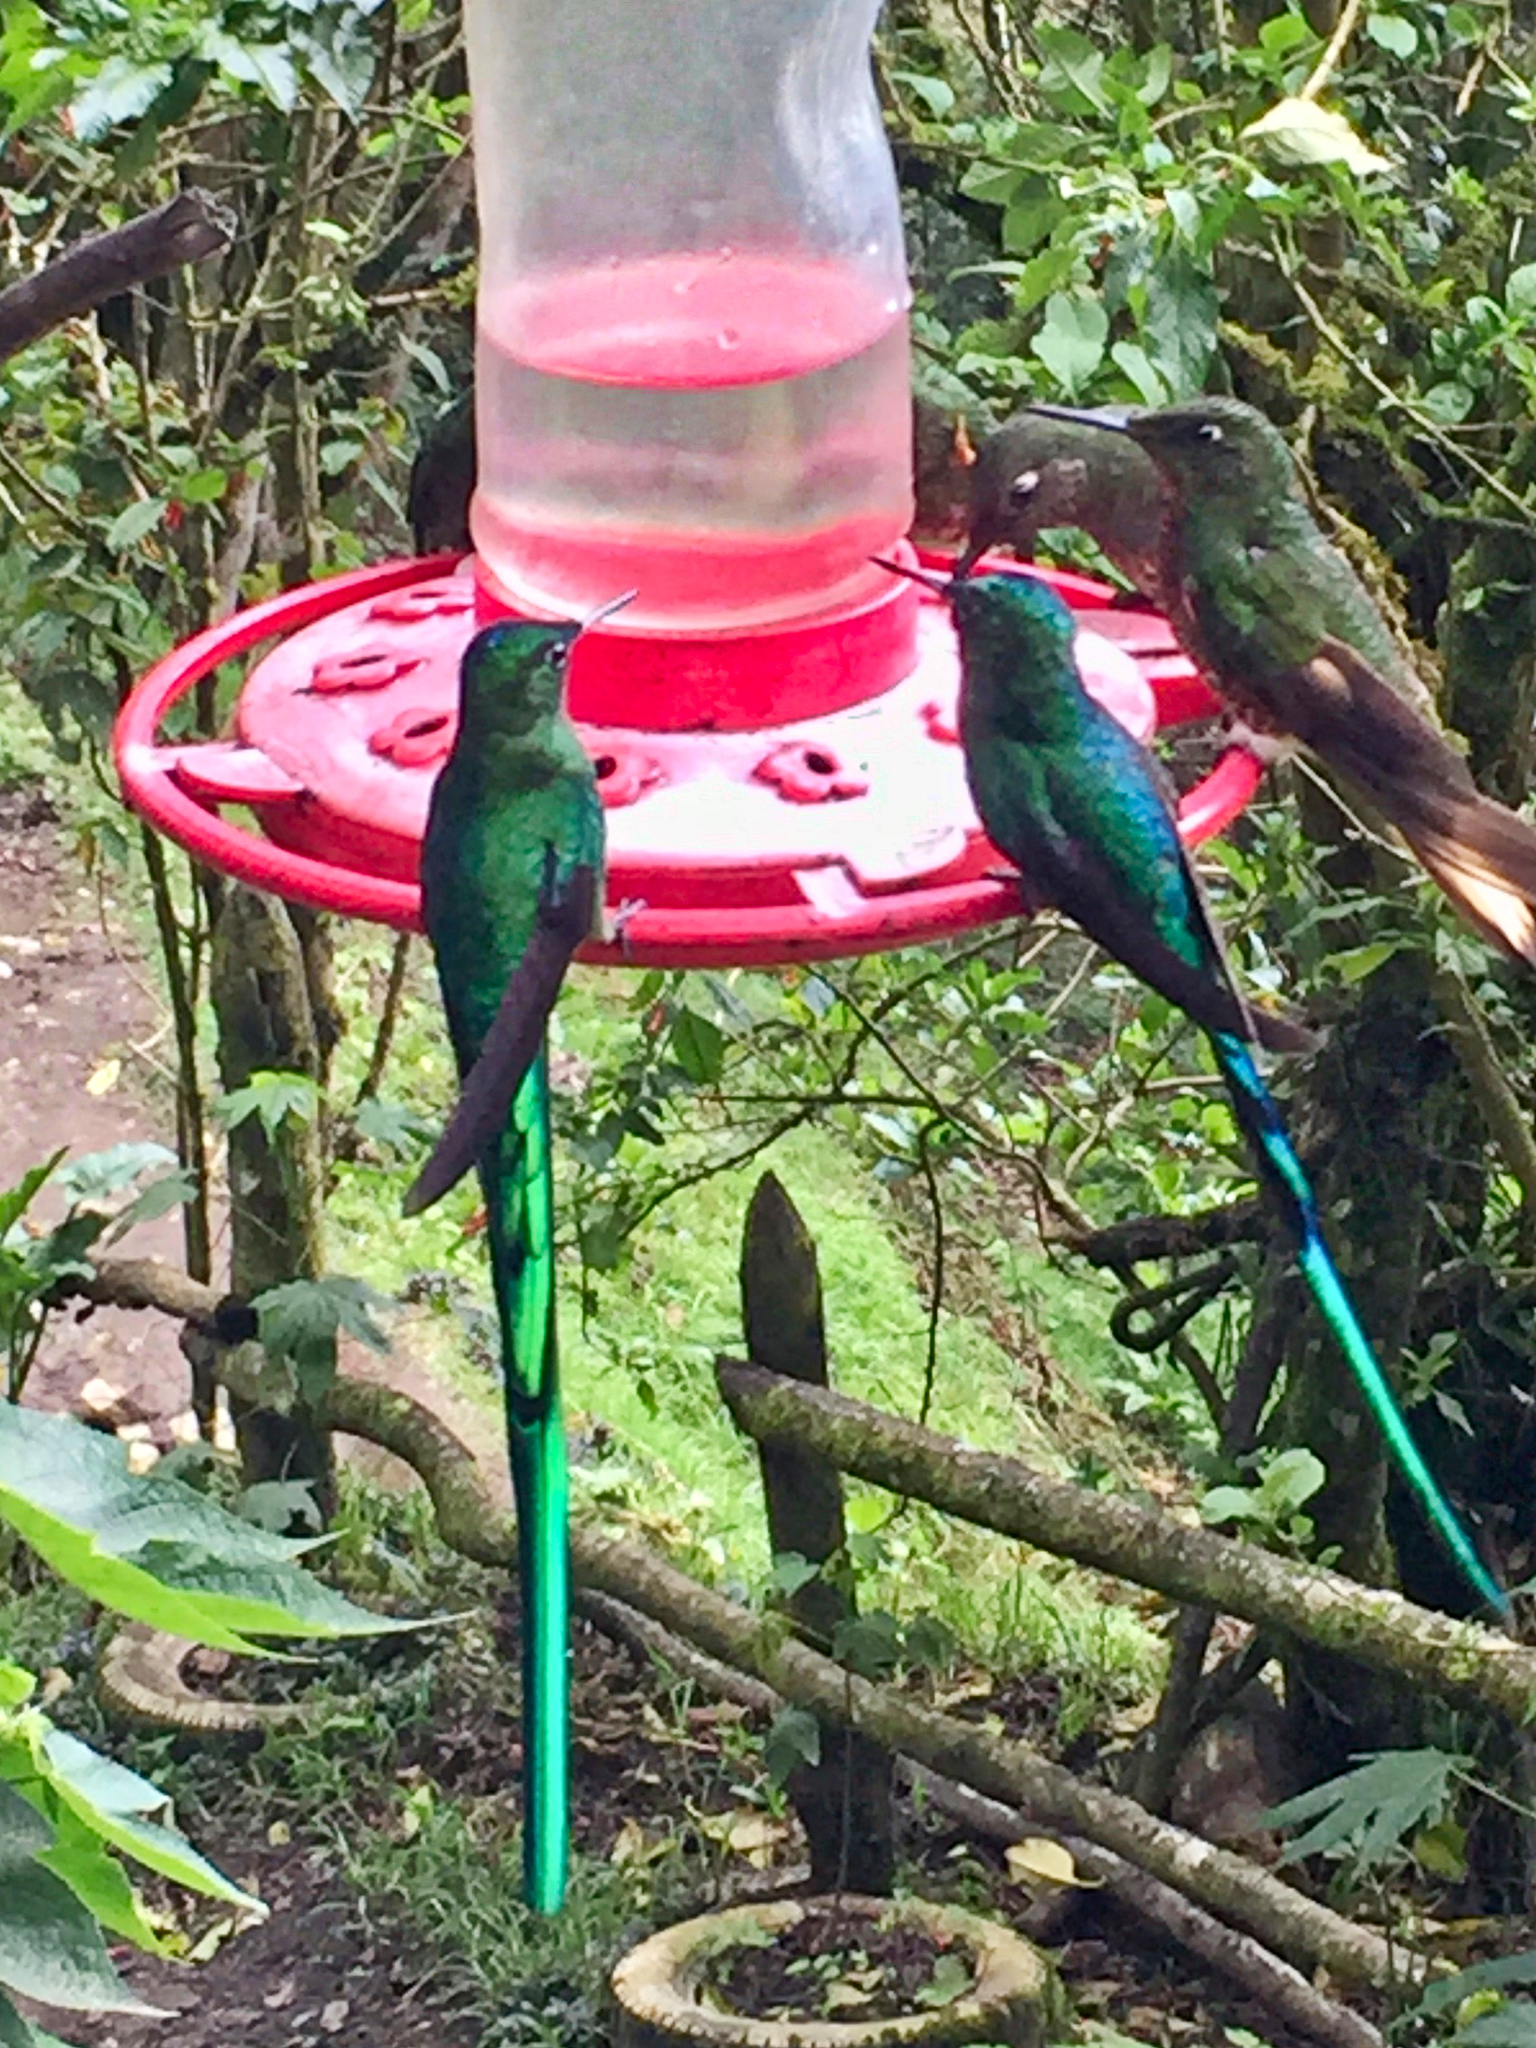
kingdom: Animalia
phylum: Chordata
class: Aves
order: Apodiformes
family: Trochilidae
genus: Aglaiocercus
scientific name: Aglaiocercus kingii
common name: Long-tailed sylph
